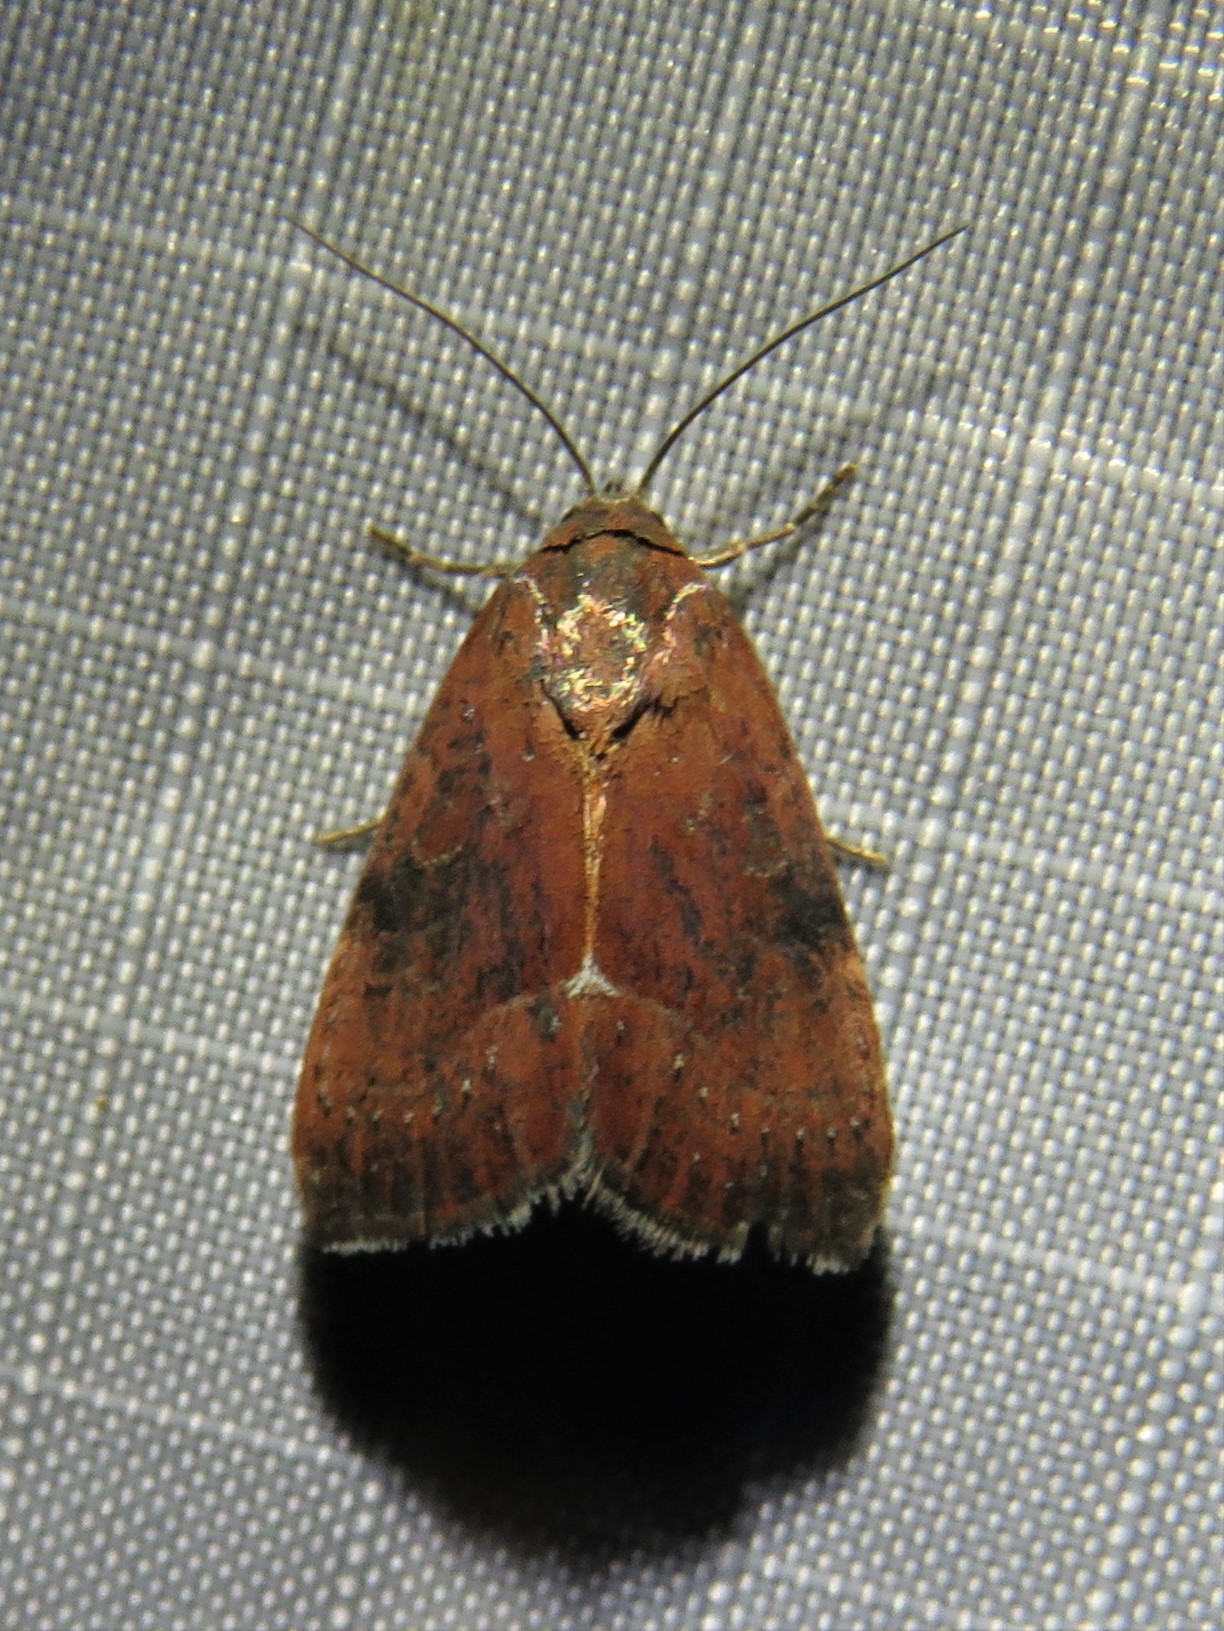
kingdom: Animalia
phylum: Arthropoda
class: Insecta
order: Lepidoptera
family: Noctuidae
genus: Galgula
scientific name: Galgula partita
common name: Wedgeling
